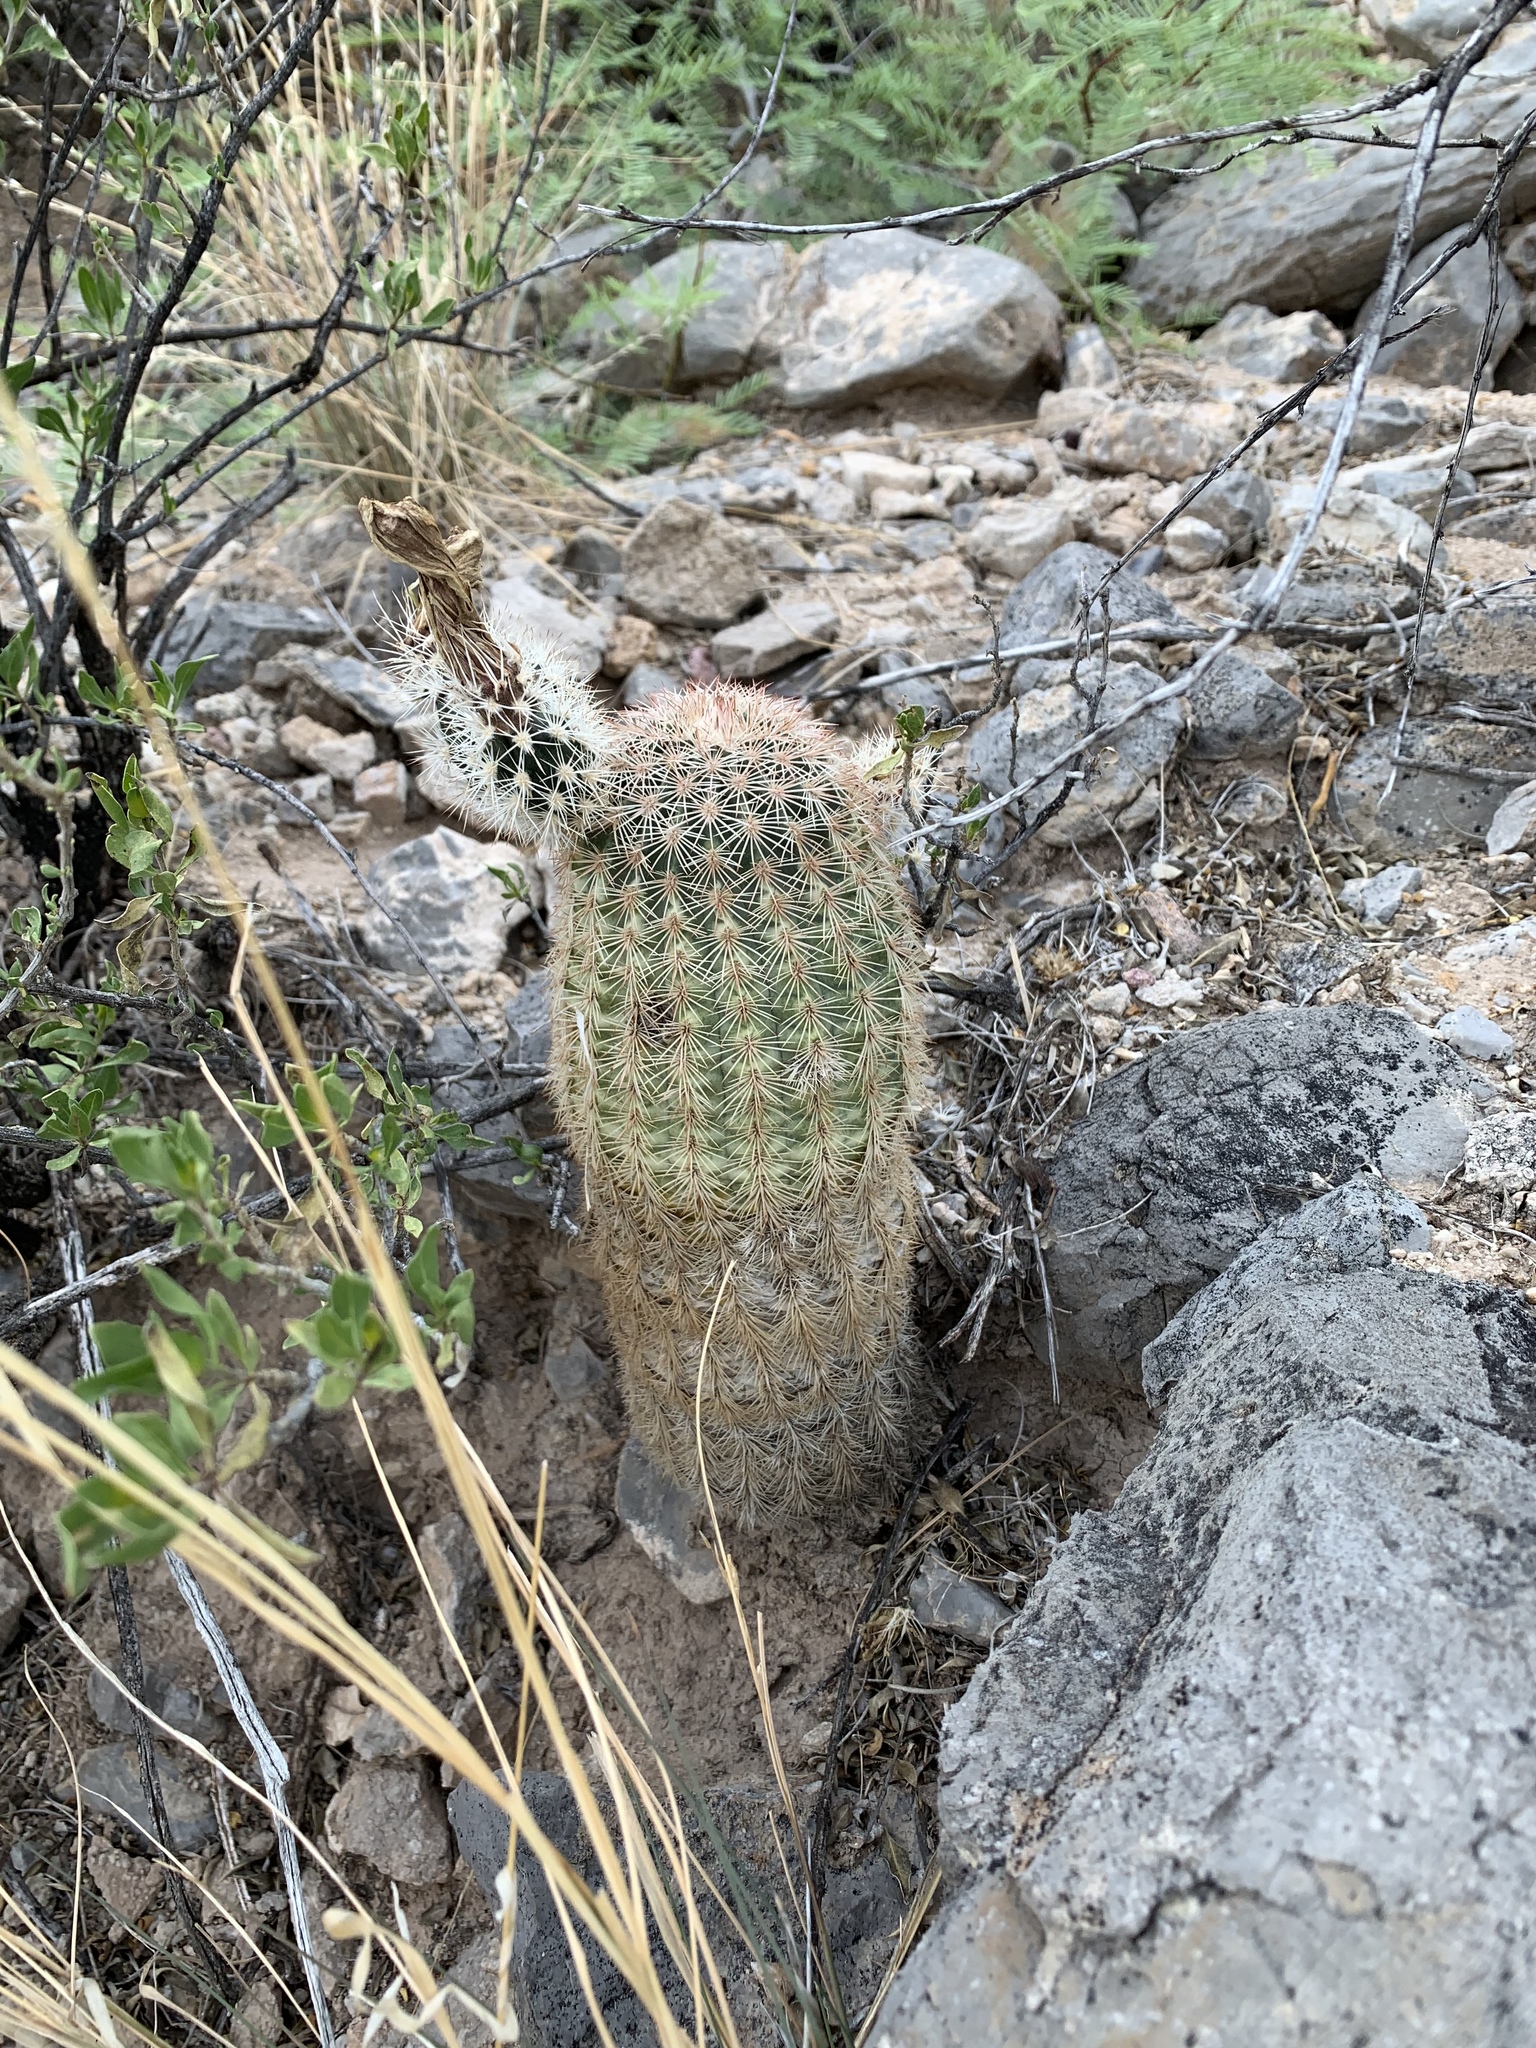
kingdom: Plantae
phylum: Tracheophyta
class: Magnoliopsida
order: Caryophyllales
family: Cactaceae
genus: Echinocereus
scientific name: Echinocereus dasyacanthus
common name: Spiny hedgehog cactus
